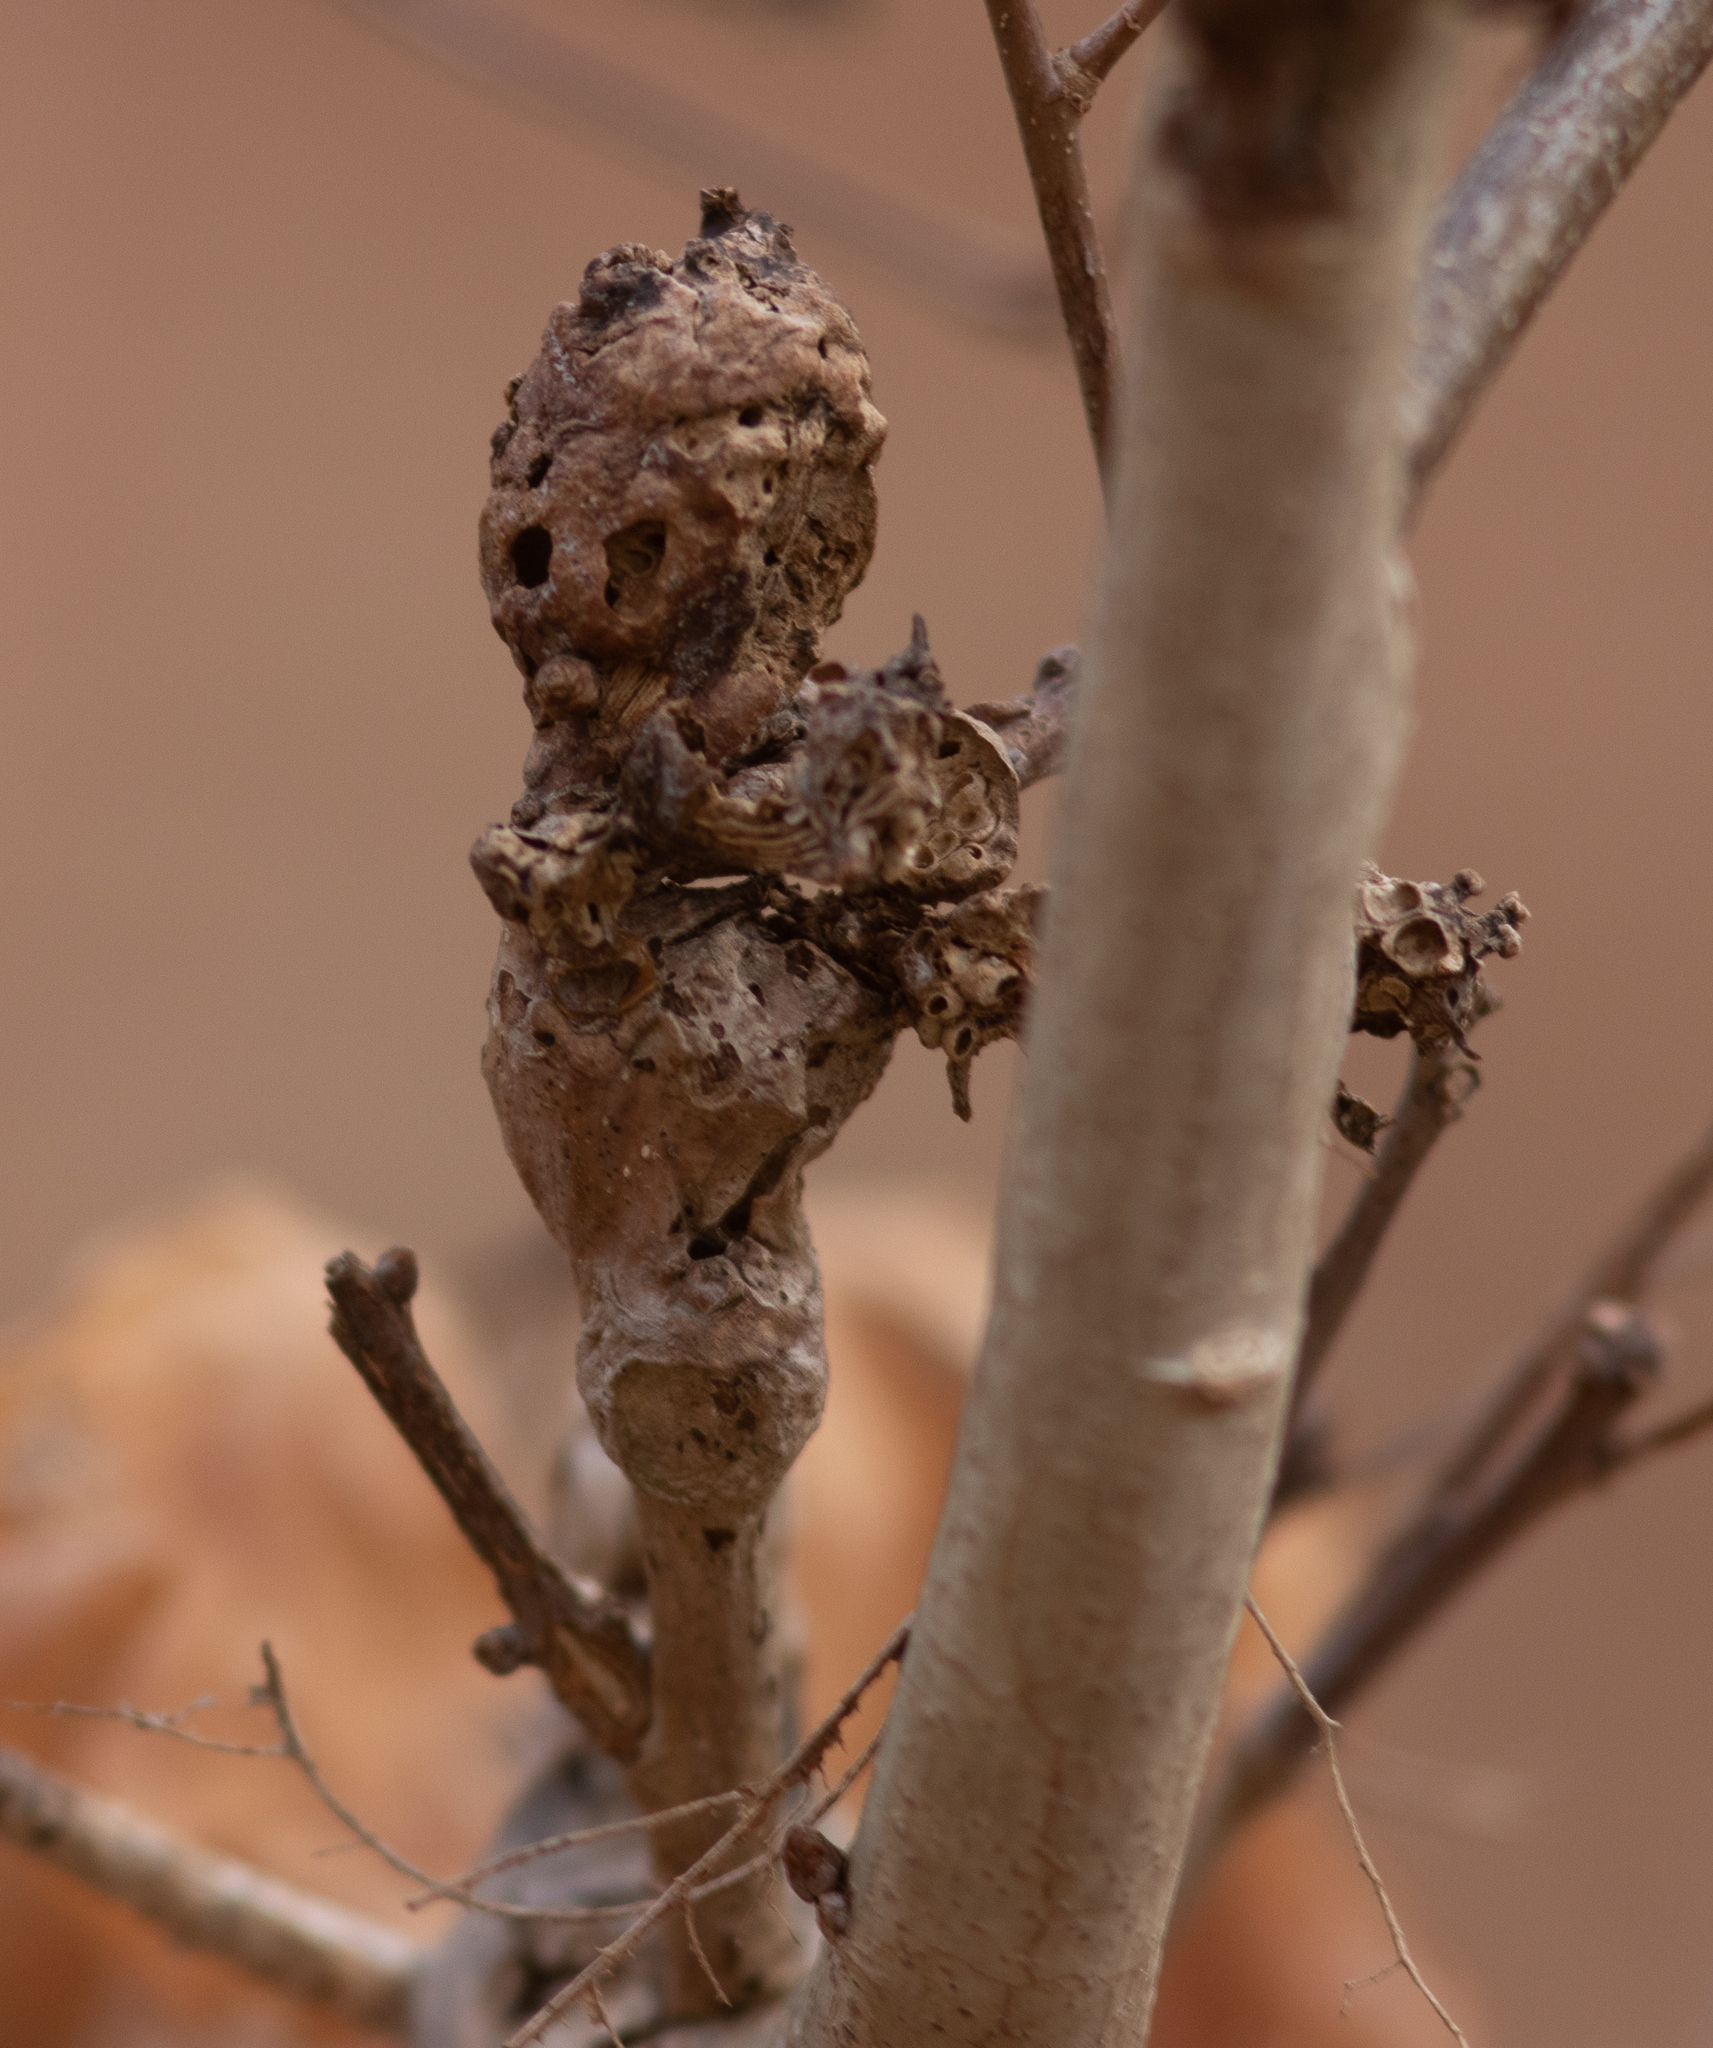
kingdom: Animalia
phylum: Arthropoda
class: Insecta
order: Hymenoptera
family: Cynipidae
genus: Neuroterus
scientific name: Neuroterus quercusbaccarum
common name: Common spangle gall
